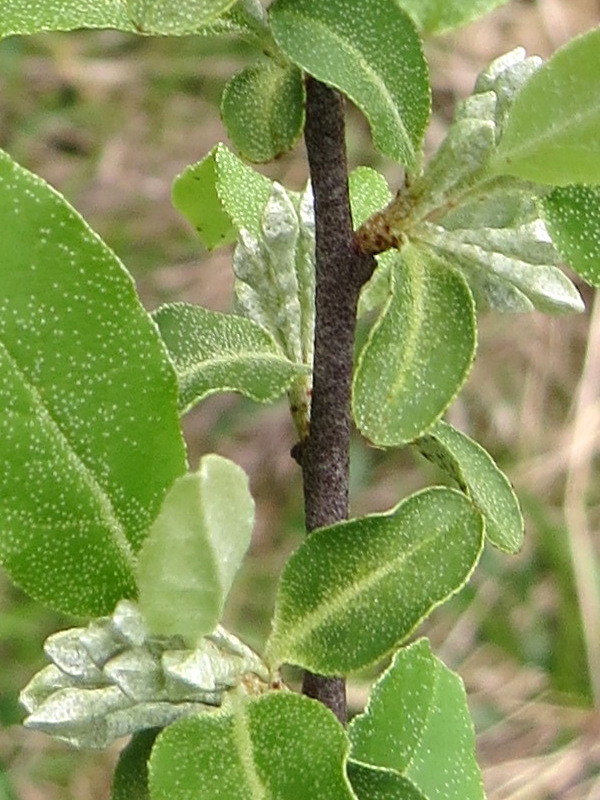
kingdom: Plantae
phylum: Tracheophyta
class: Magnoliopsida
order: Rosales
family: Elaeagnaceae
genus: Elaeagnus
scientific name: Elaeagnus umbellata
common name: Autumn olive
